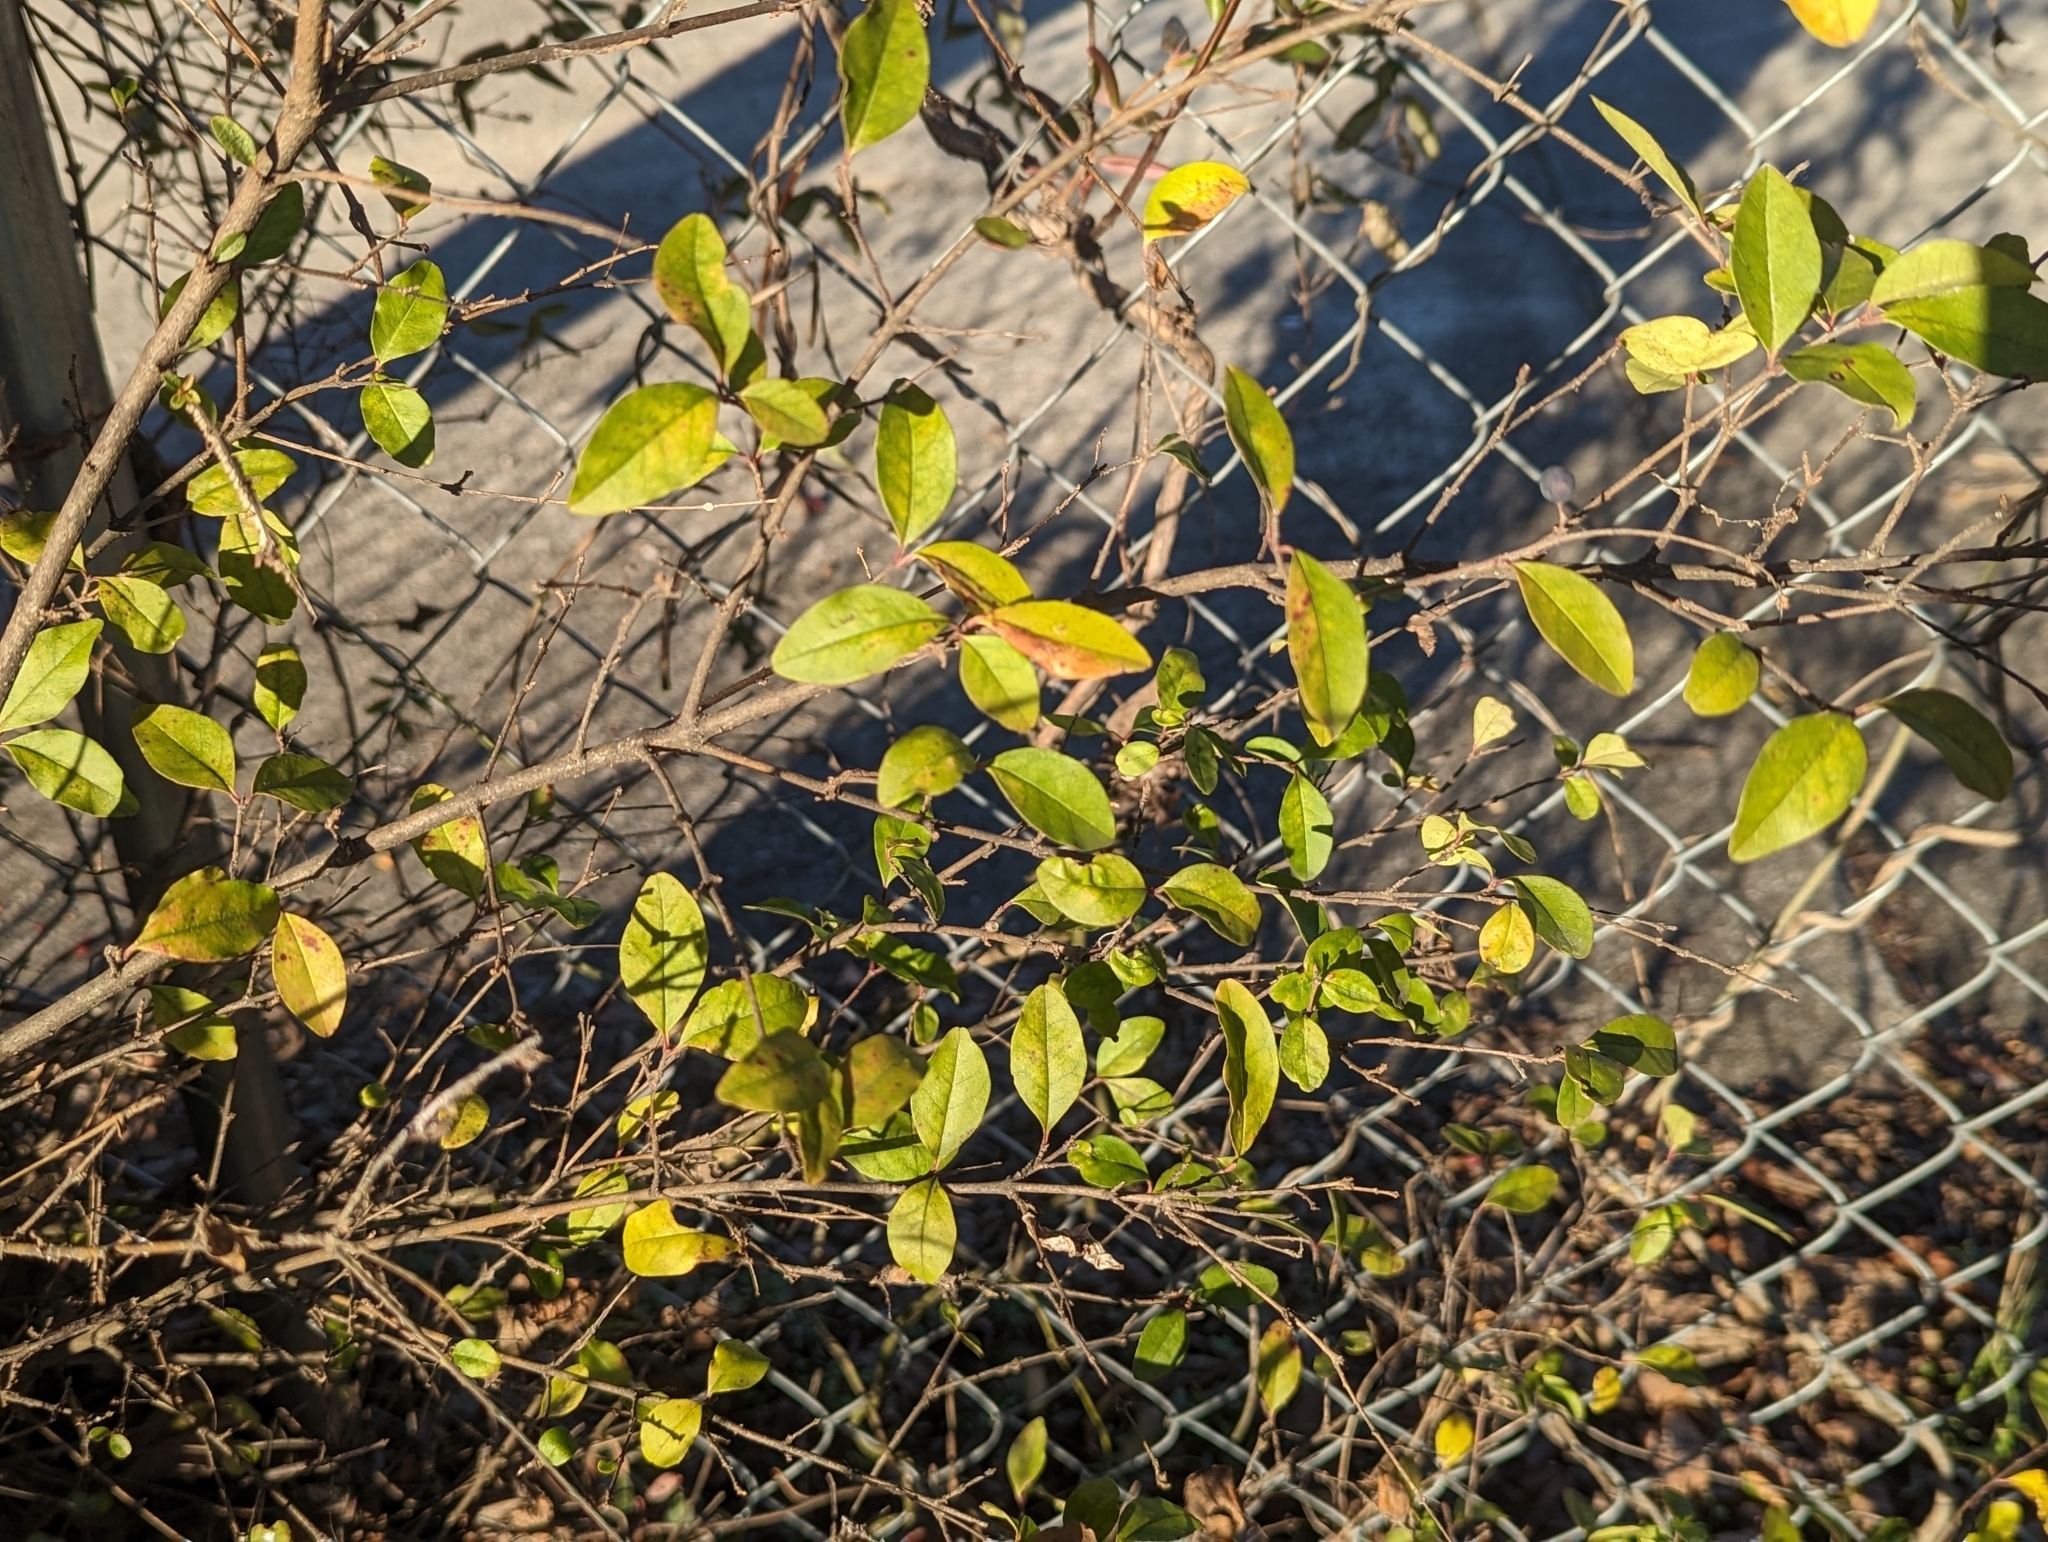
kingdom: Plantae
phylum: Tracheophyta
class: Magnoliopsida
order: Lamiales
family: Oleaceae
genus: Ligustrum
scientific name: Ligustrum sinense
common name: Chinese privet
